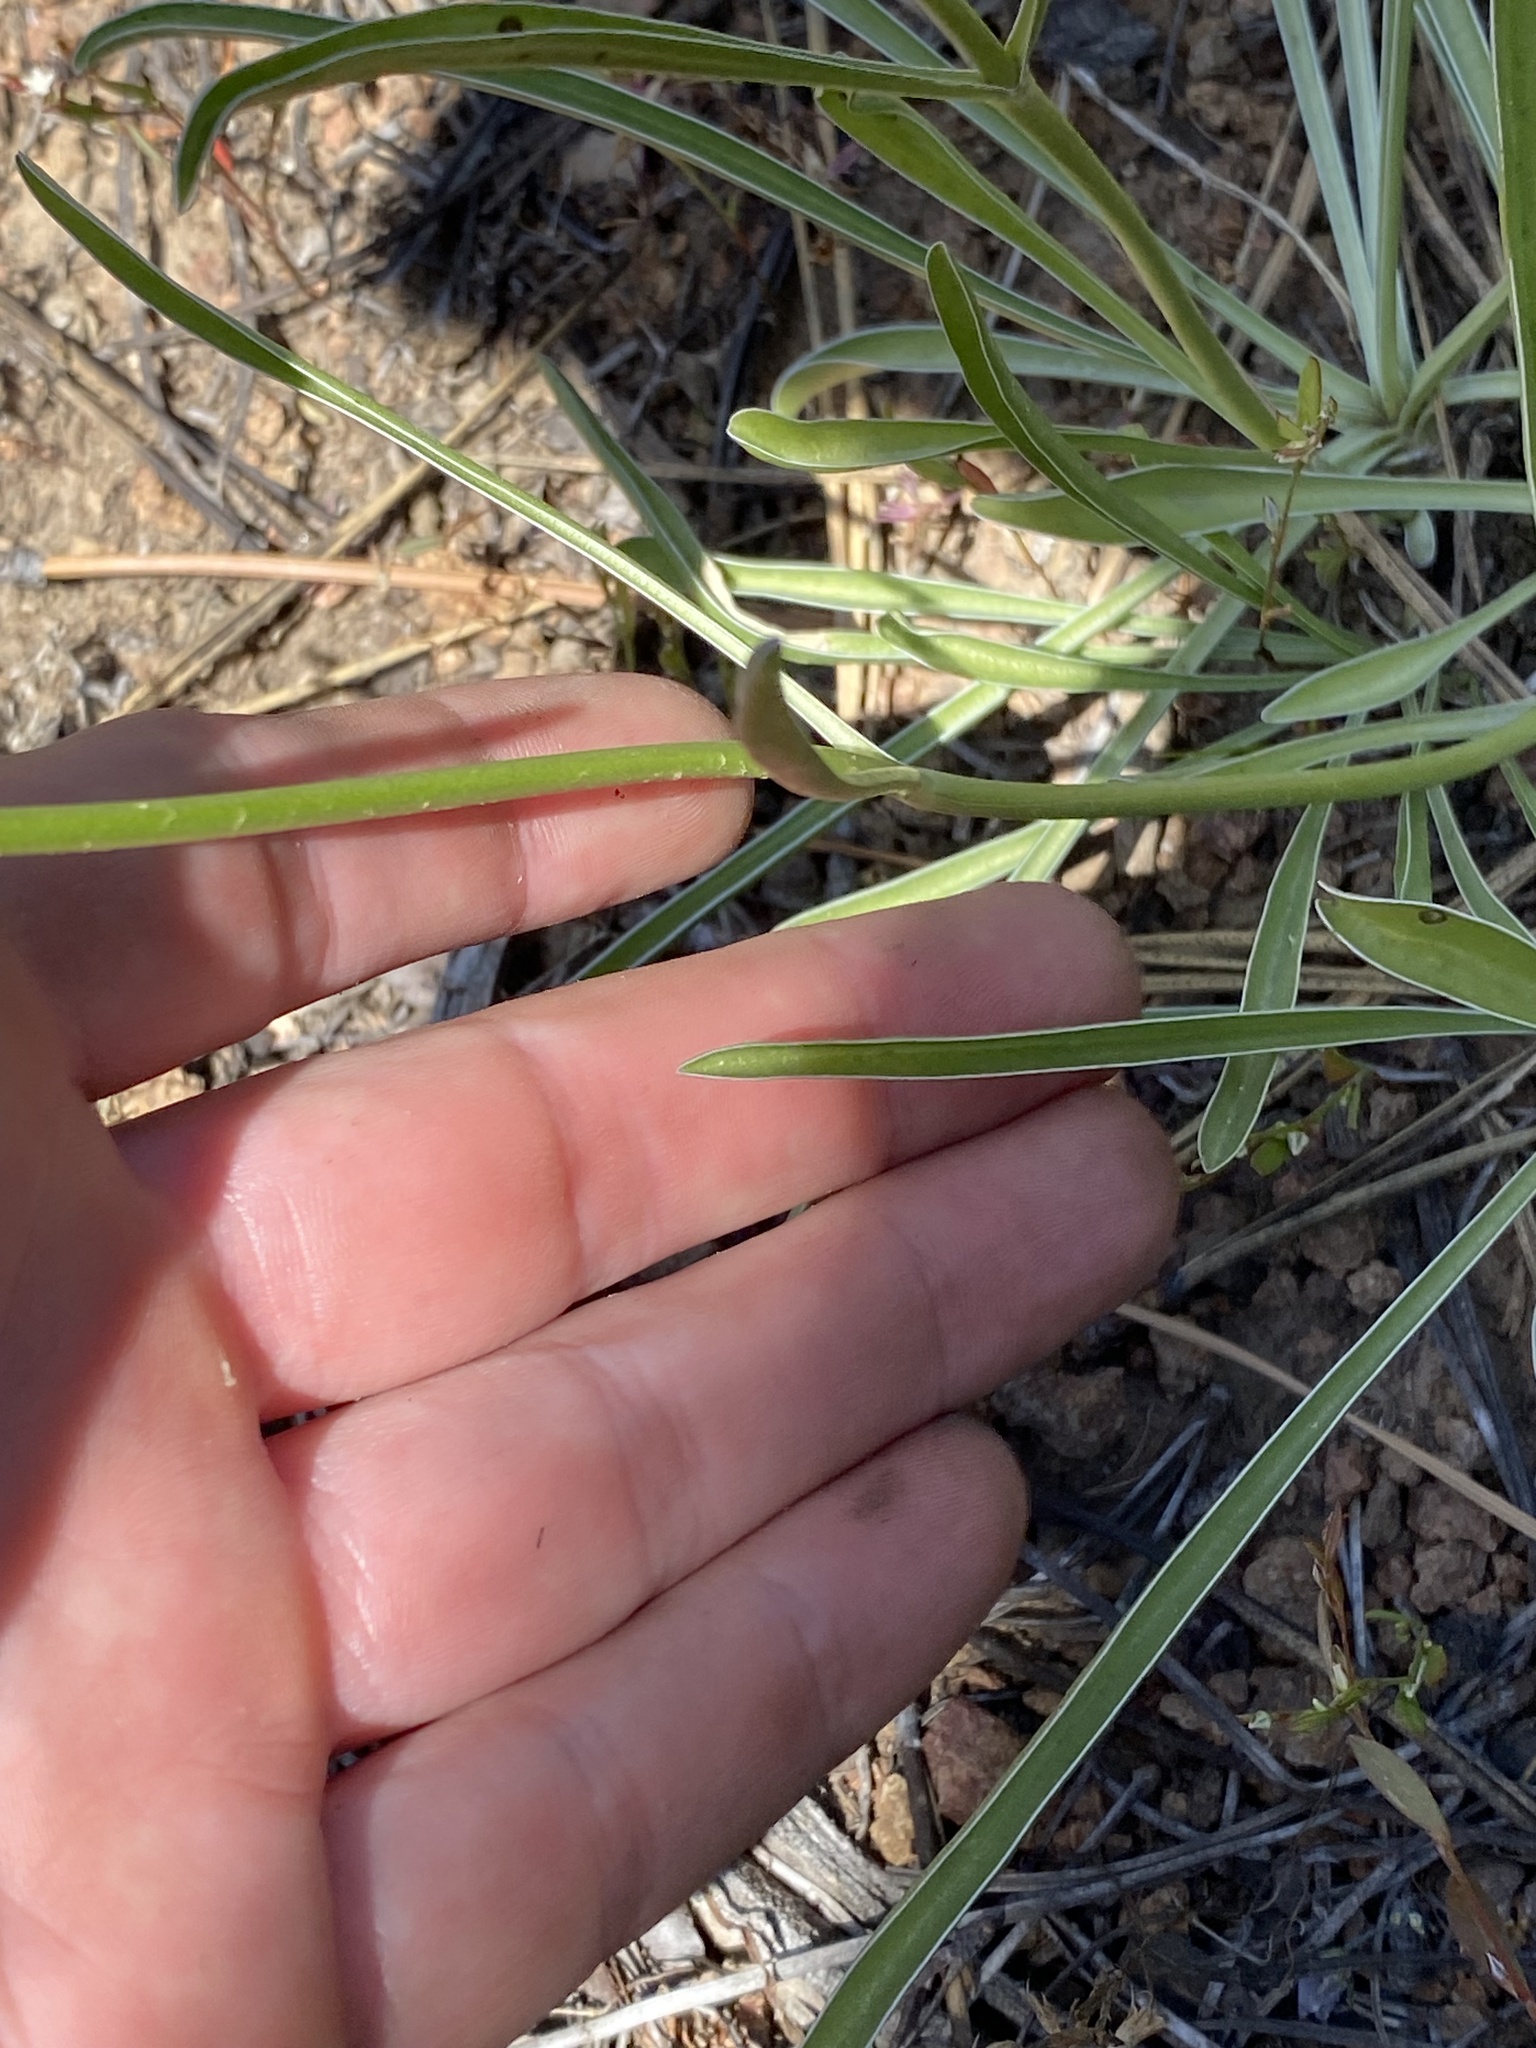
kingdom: Plantae
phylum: Tracheophyta
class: Magnoliopsida
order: Gentianales
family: Gentianaceae
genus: Frasera
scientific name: Frasera albicaulis
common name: Cusick's frasera
